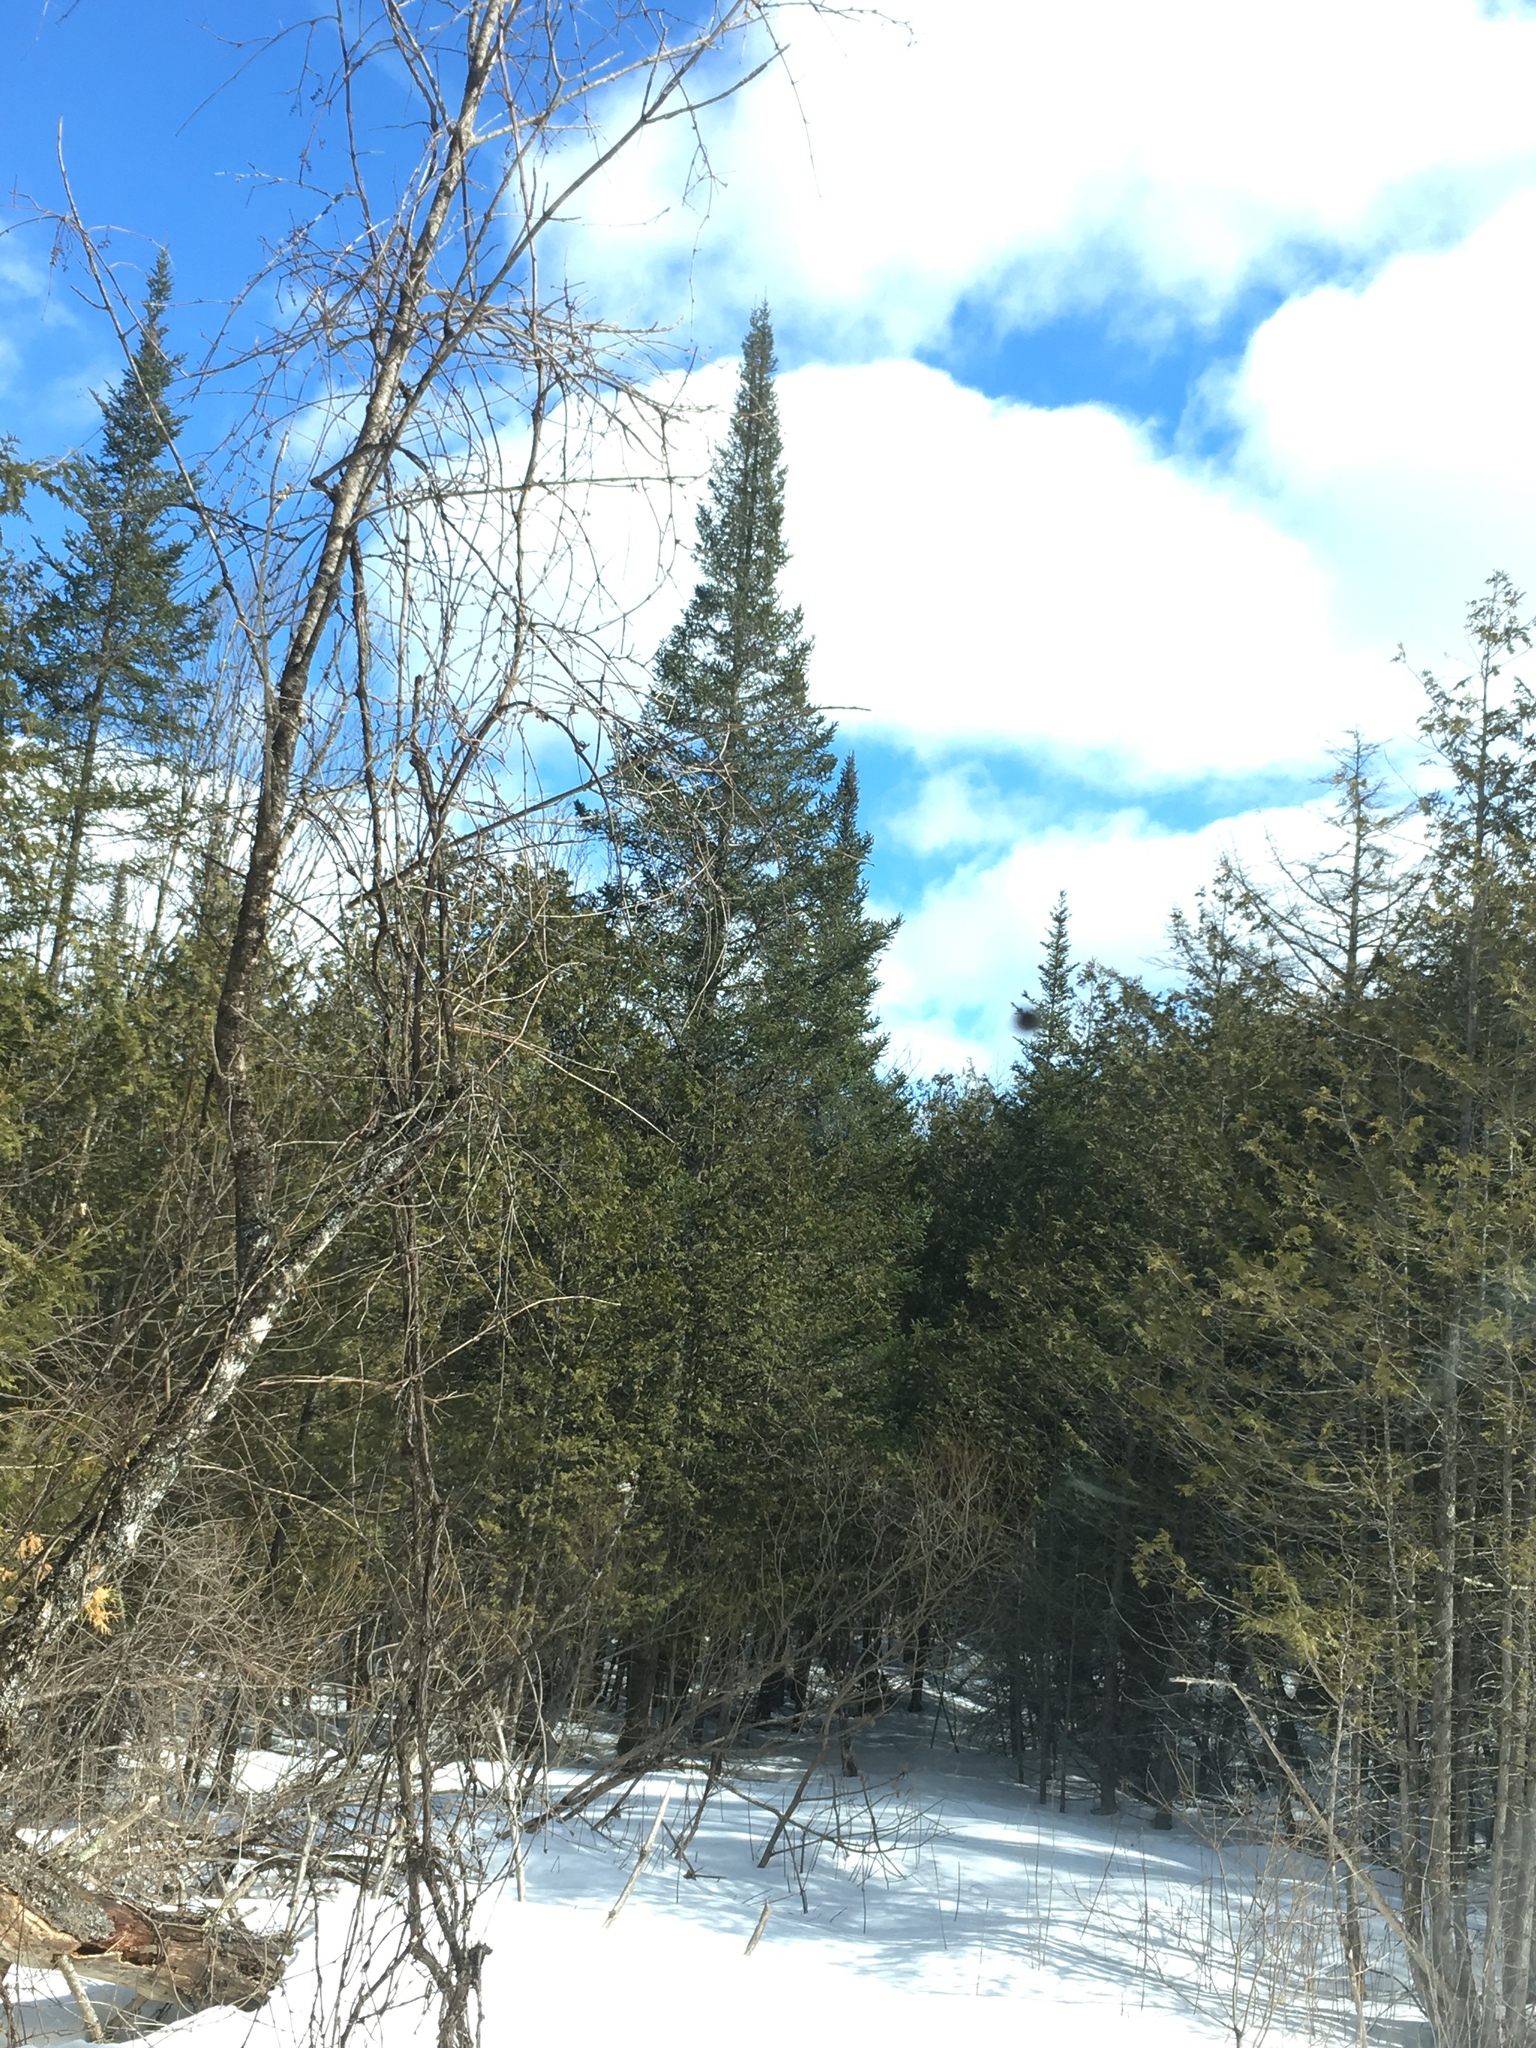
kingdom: Plantae
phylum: Tracheophyta
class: Pinopsida
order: Pinales
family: Cupressaceae
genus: Thuja
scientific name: Thuja occidentalis
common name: Northern white-cedar
